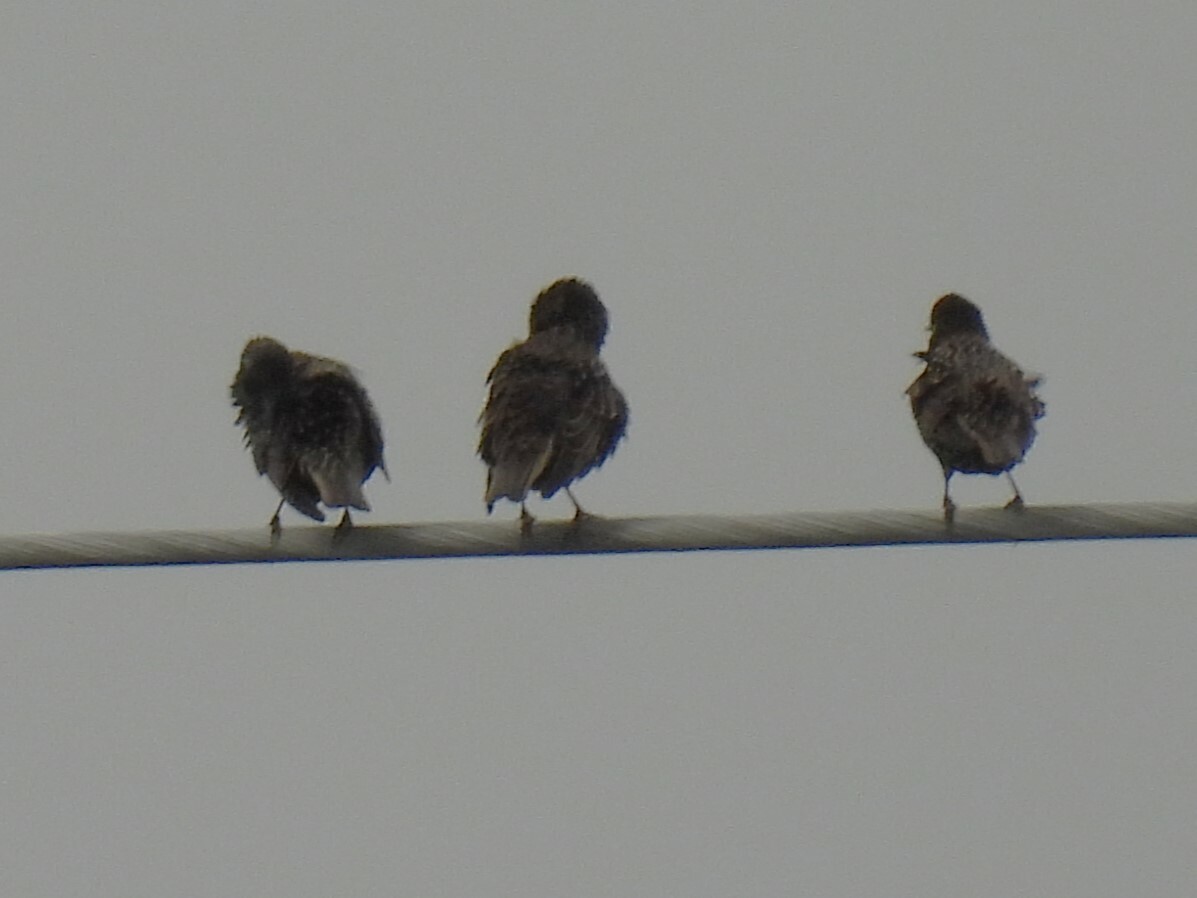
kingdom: Animalia
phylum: Chordata
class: Aves
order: Passeriformes
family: Sturnidae
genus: Sturnus
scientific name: Sturnus vulgaris
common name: Common starling
